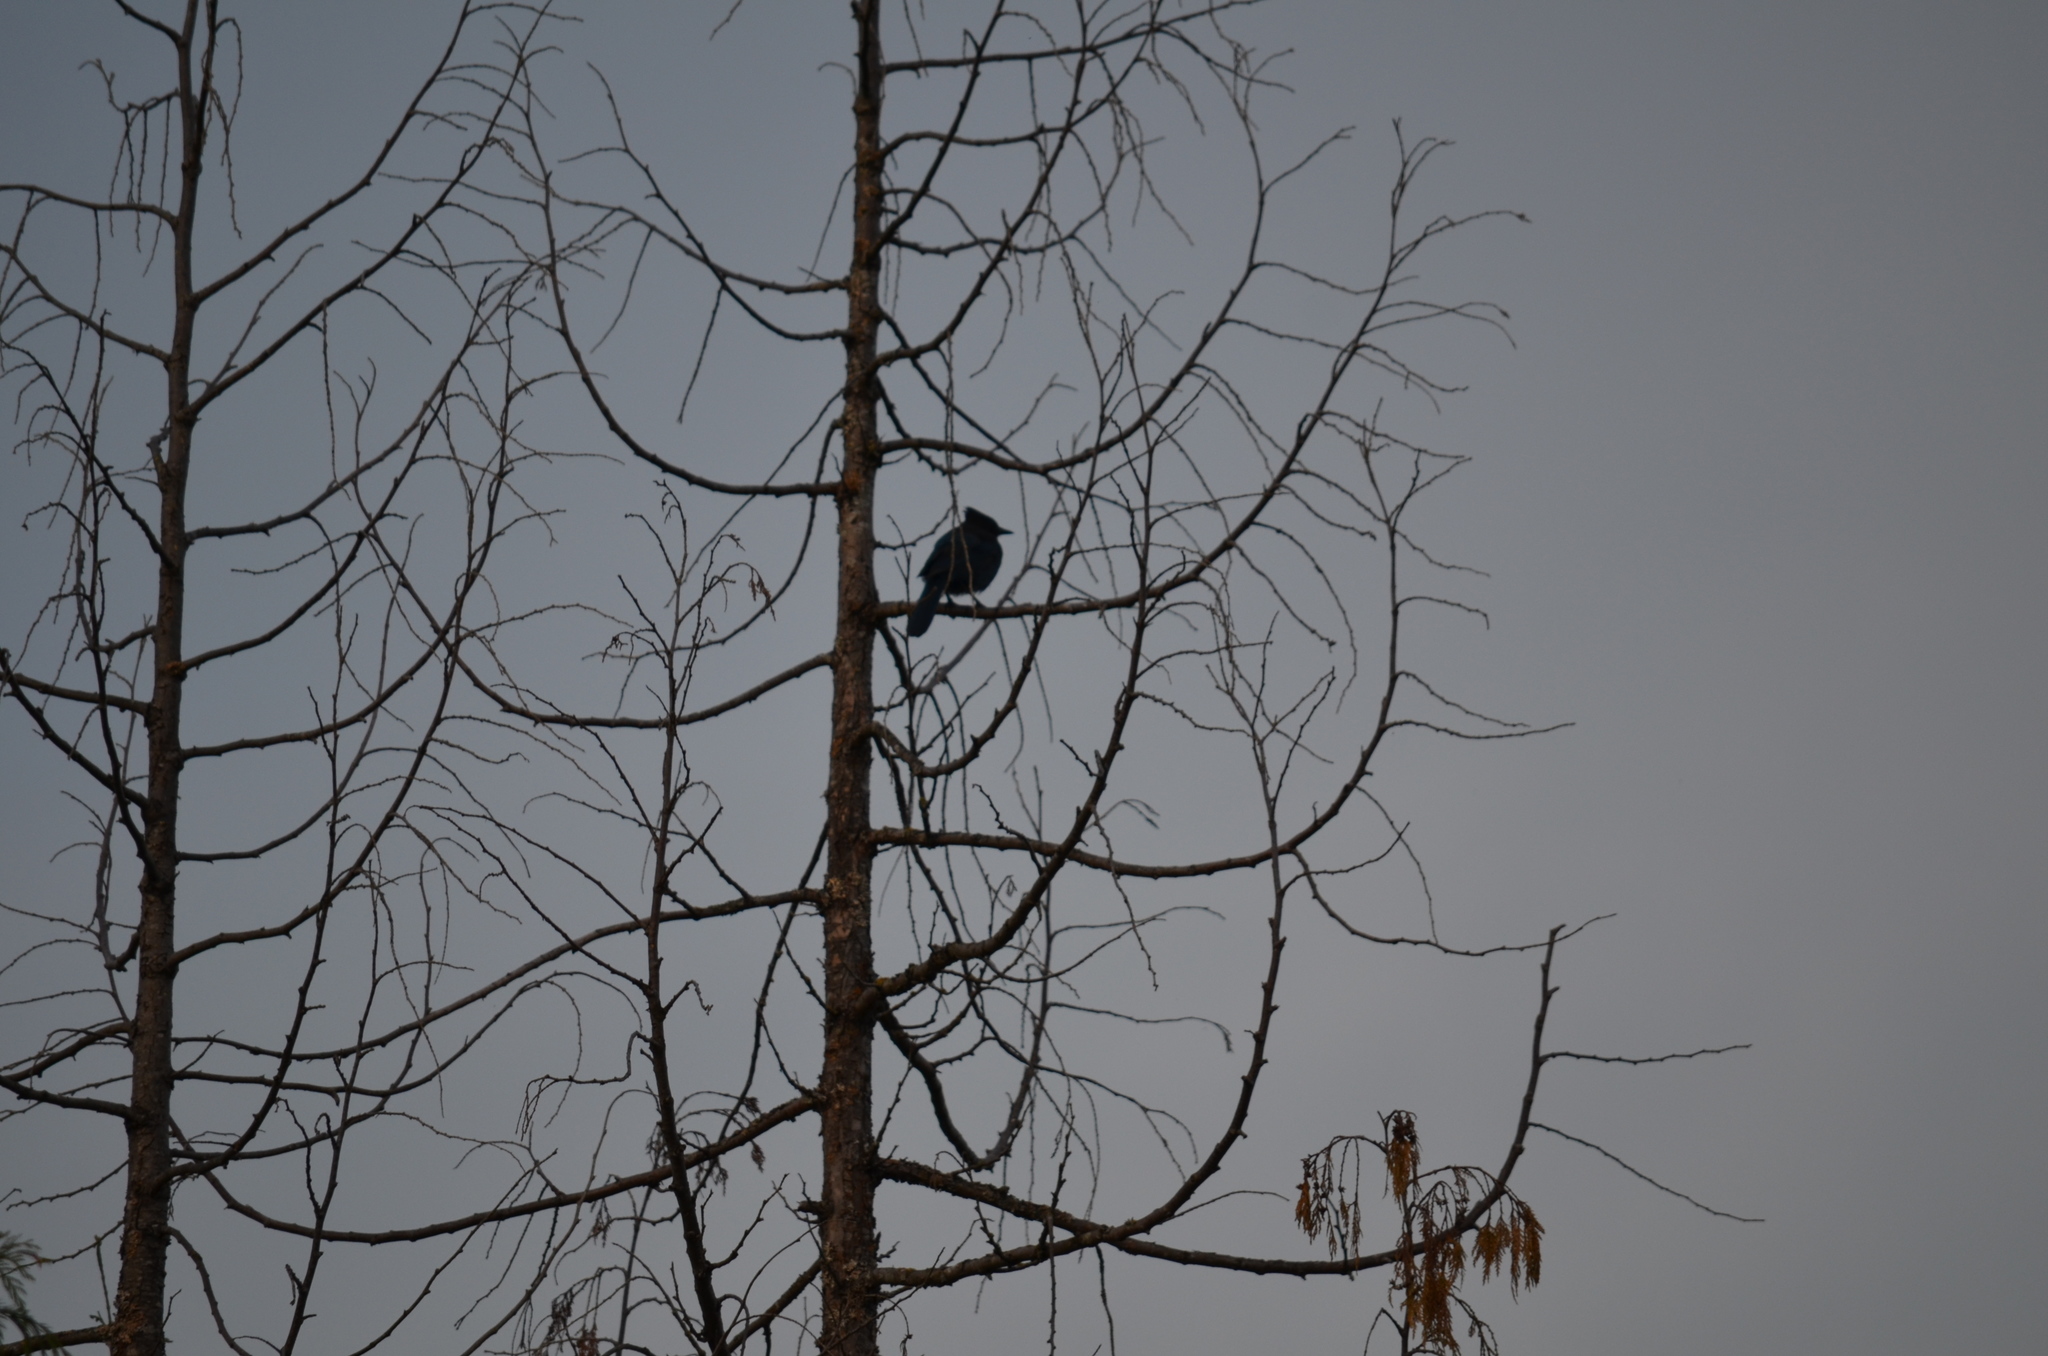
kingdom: Animalia
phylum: Chordata
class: Aves
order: Passeriformes
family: Corvidae
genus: Cyanocitta
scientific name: Cyanocitta stelleri
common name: Steller's jay
